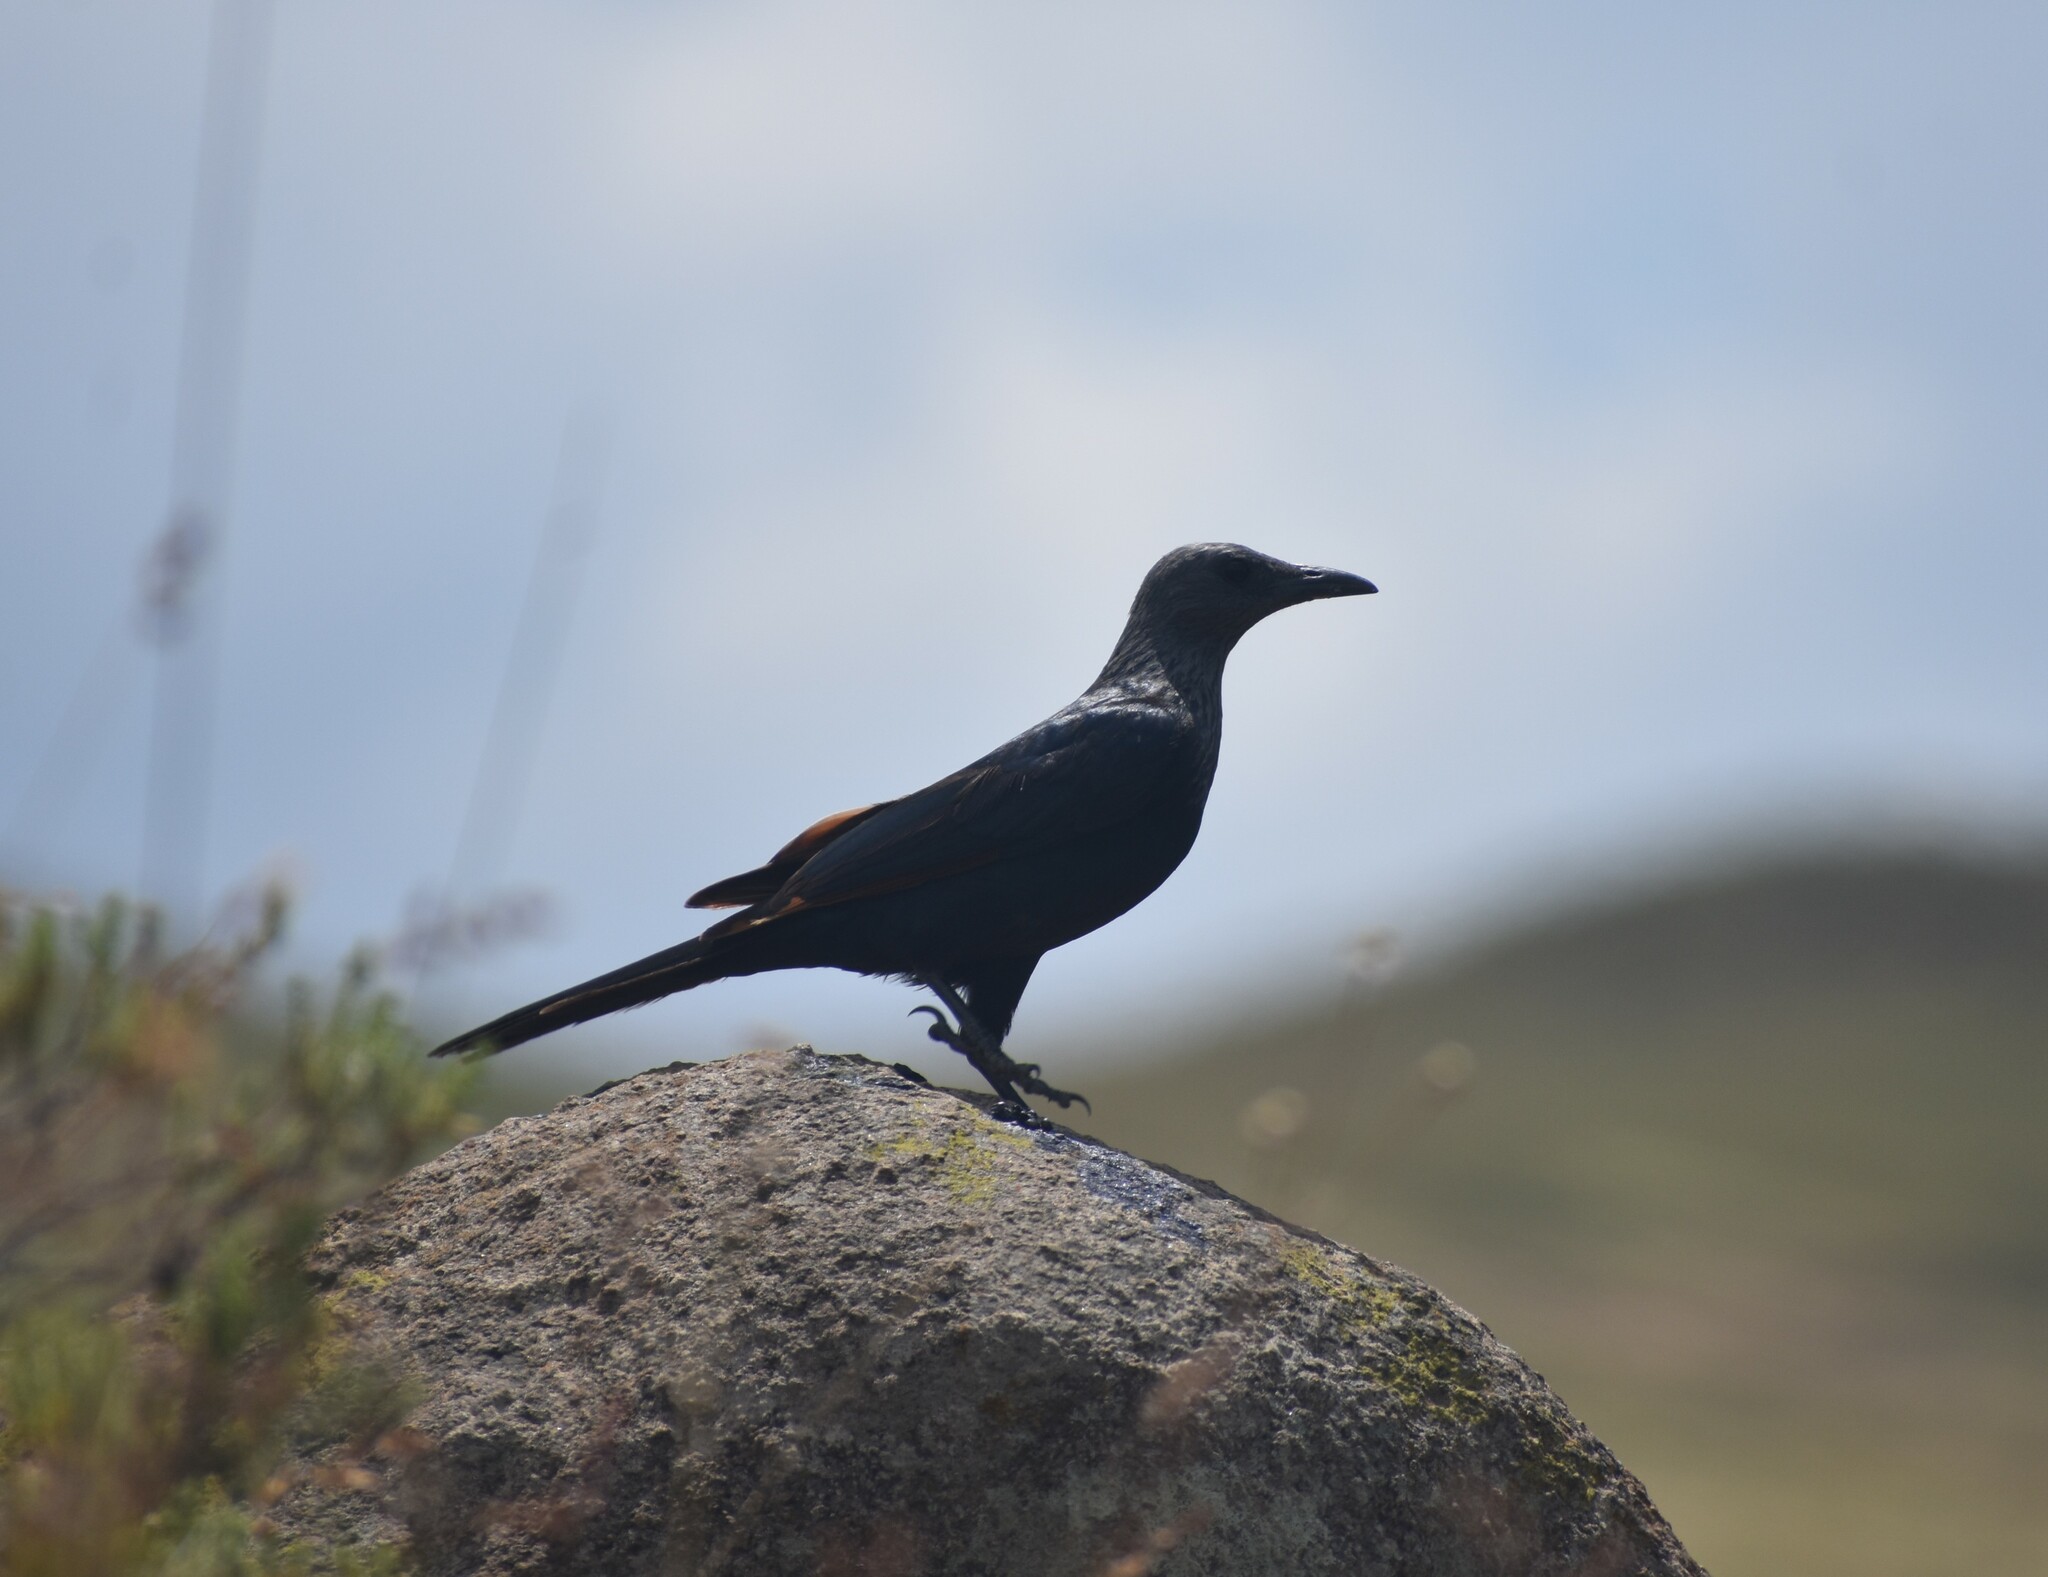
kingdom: Animalia
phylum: Chordata
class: Aves
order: Passeriformes
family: Sturnidae
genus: Onychognathus
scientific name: Onychognathus morio
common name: Red-winged starling
